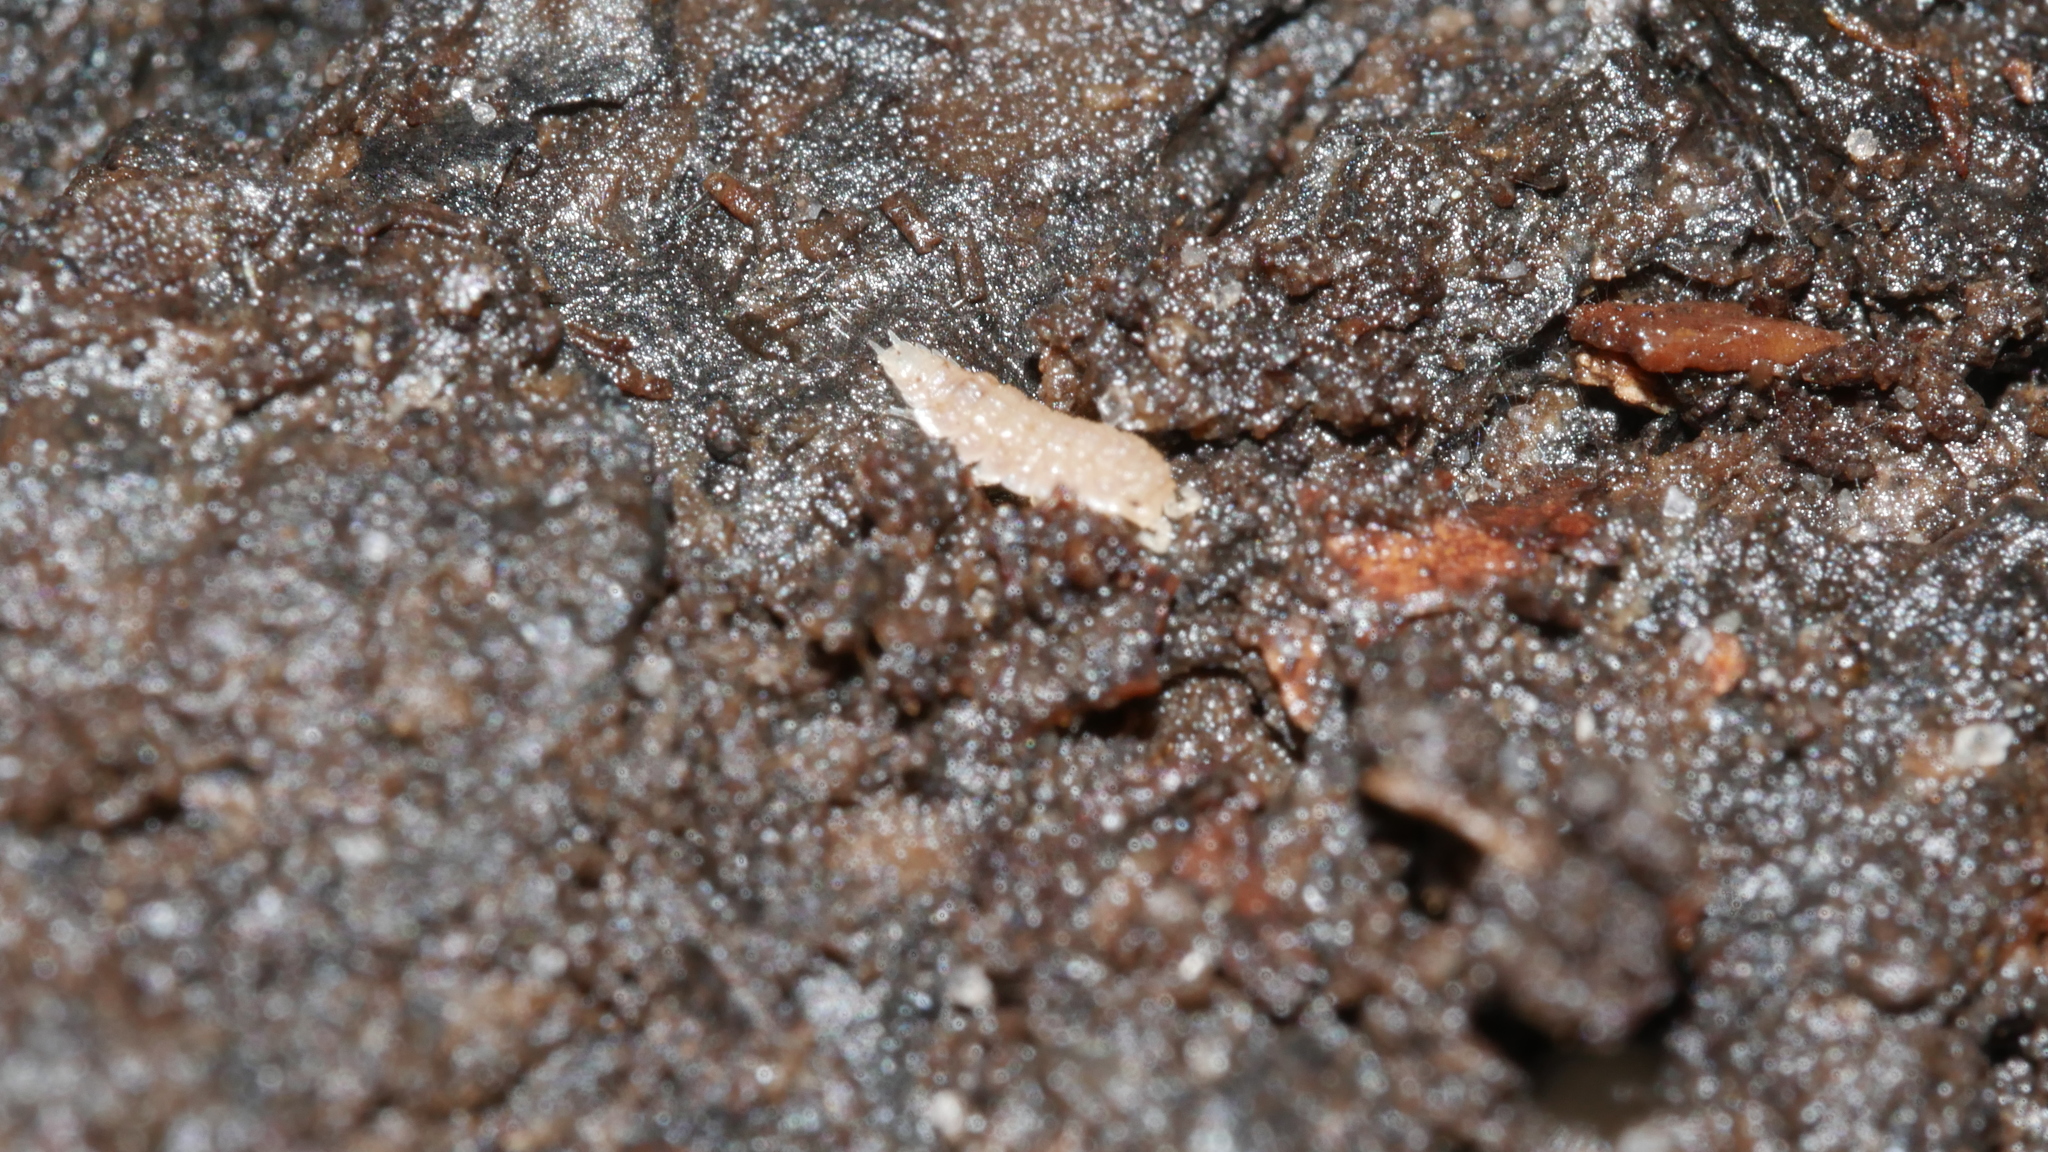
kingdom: Animalia
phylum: Arthropoda
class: Malacostraca
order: Isopoda
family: Trichoniscidae
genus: Haplophthalmus
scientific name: Haplophthalmus danicus
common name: Pillbug
